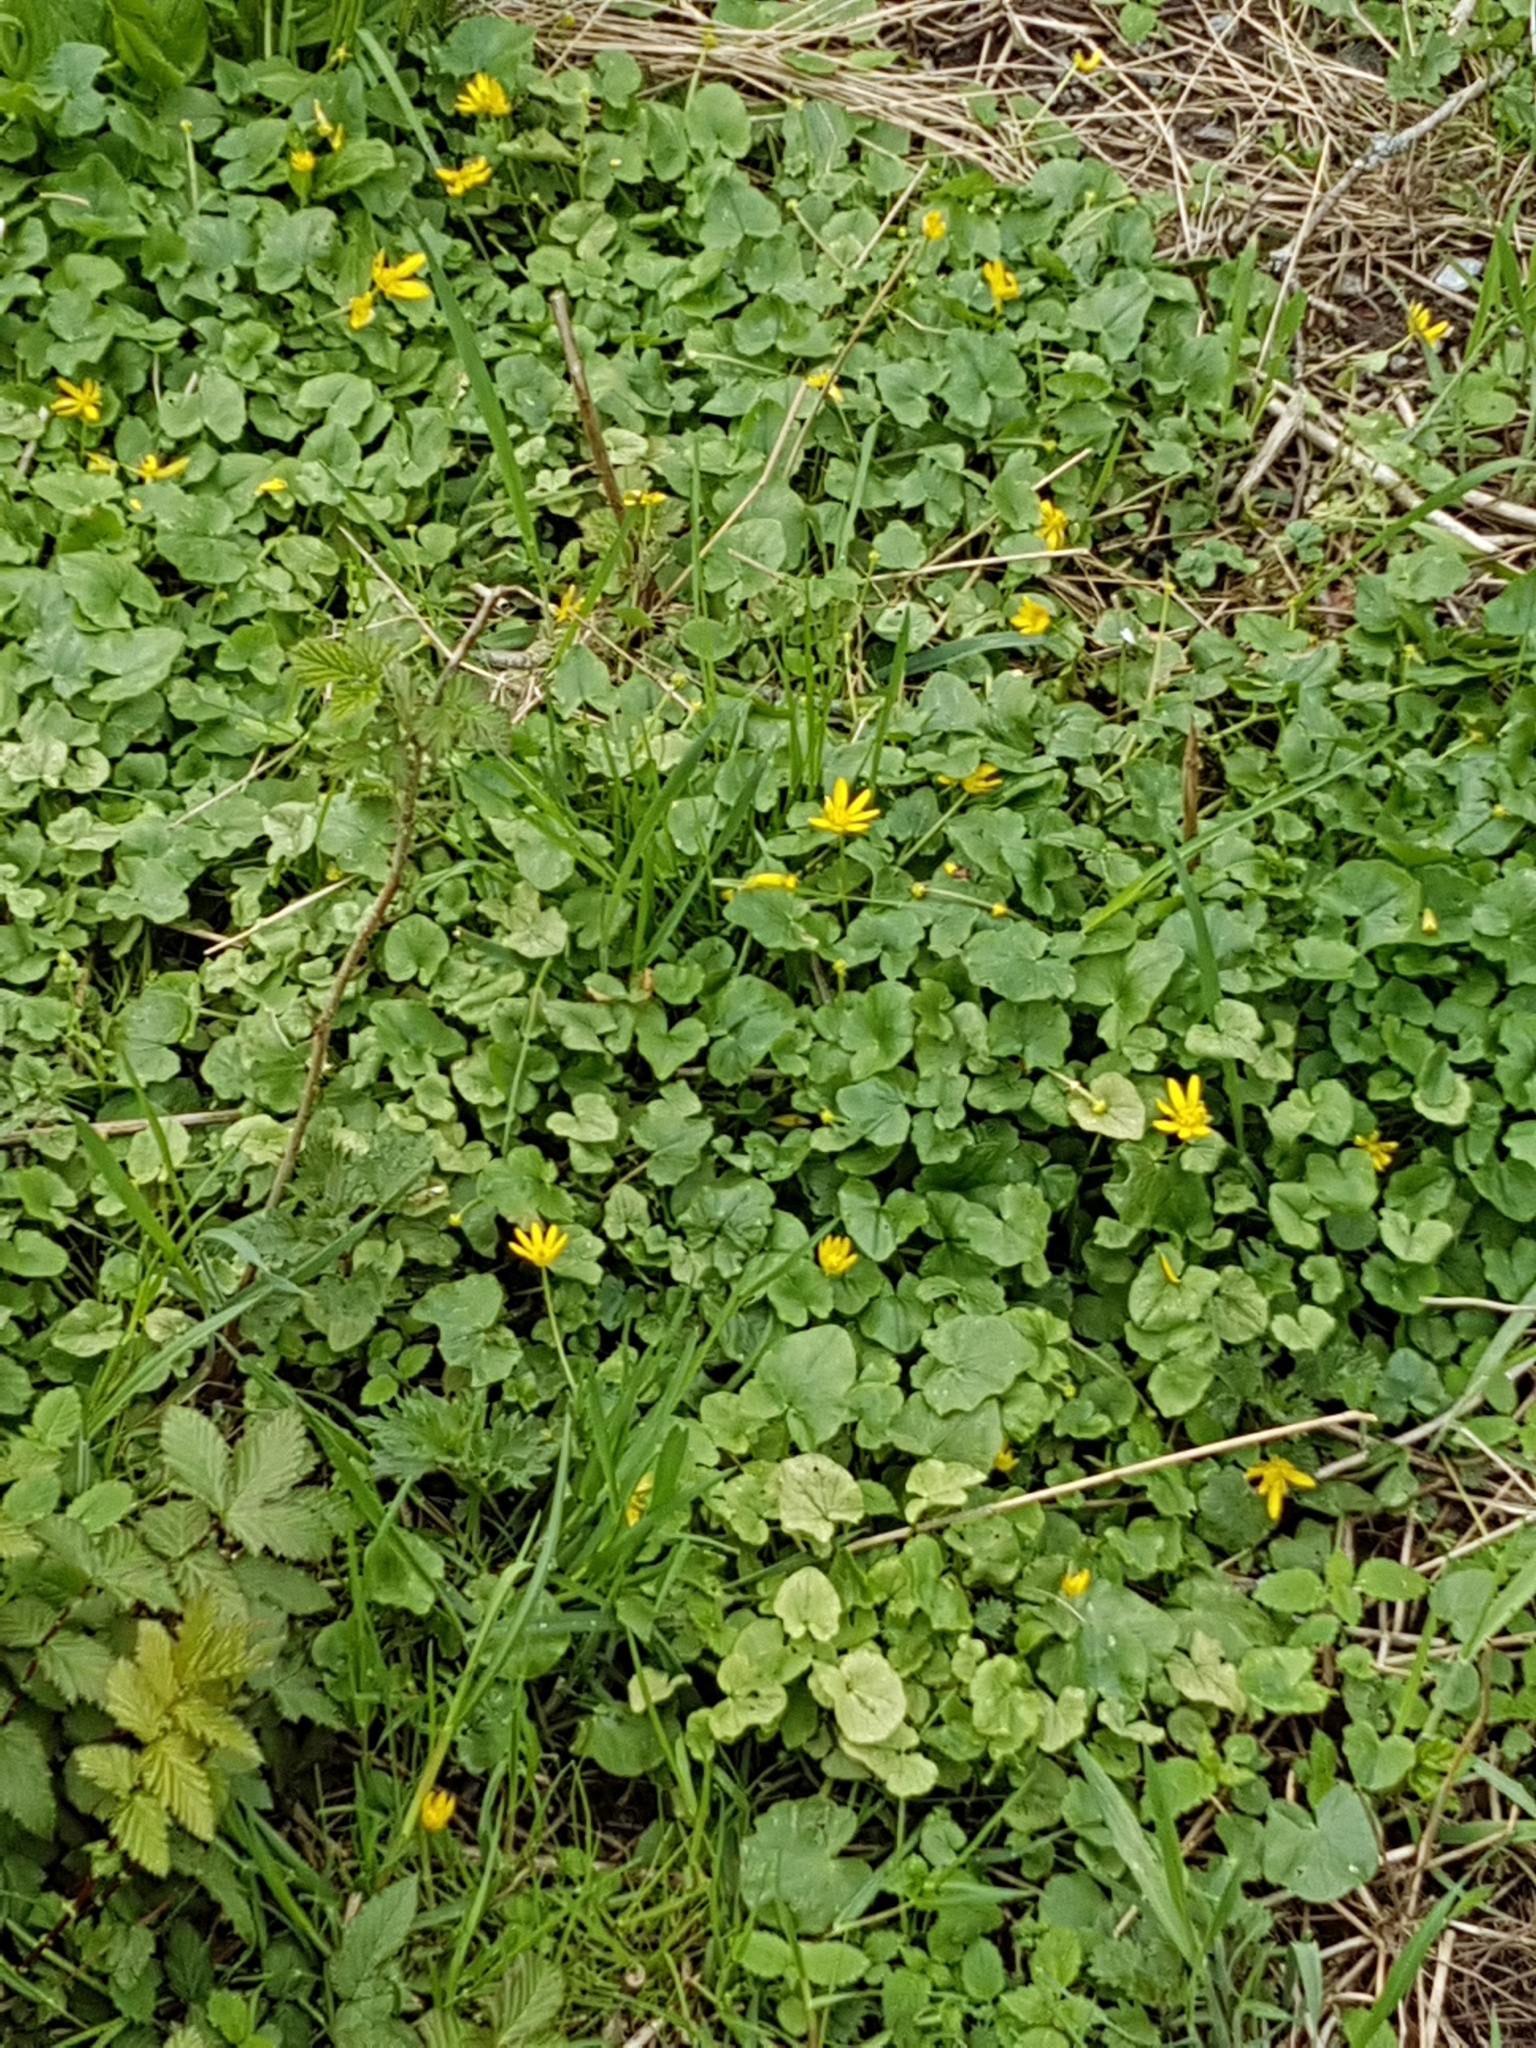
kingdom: Plantae
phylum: Tracheophyta
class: Magnoliopsida
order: Ranunculales
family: Ranunculaceae
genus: Ficaria
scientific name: Ficaria verna
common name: Lesser celandine
